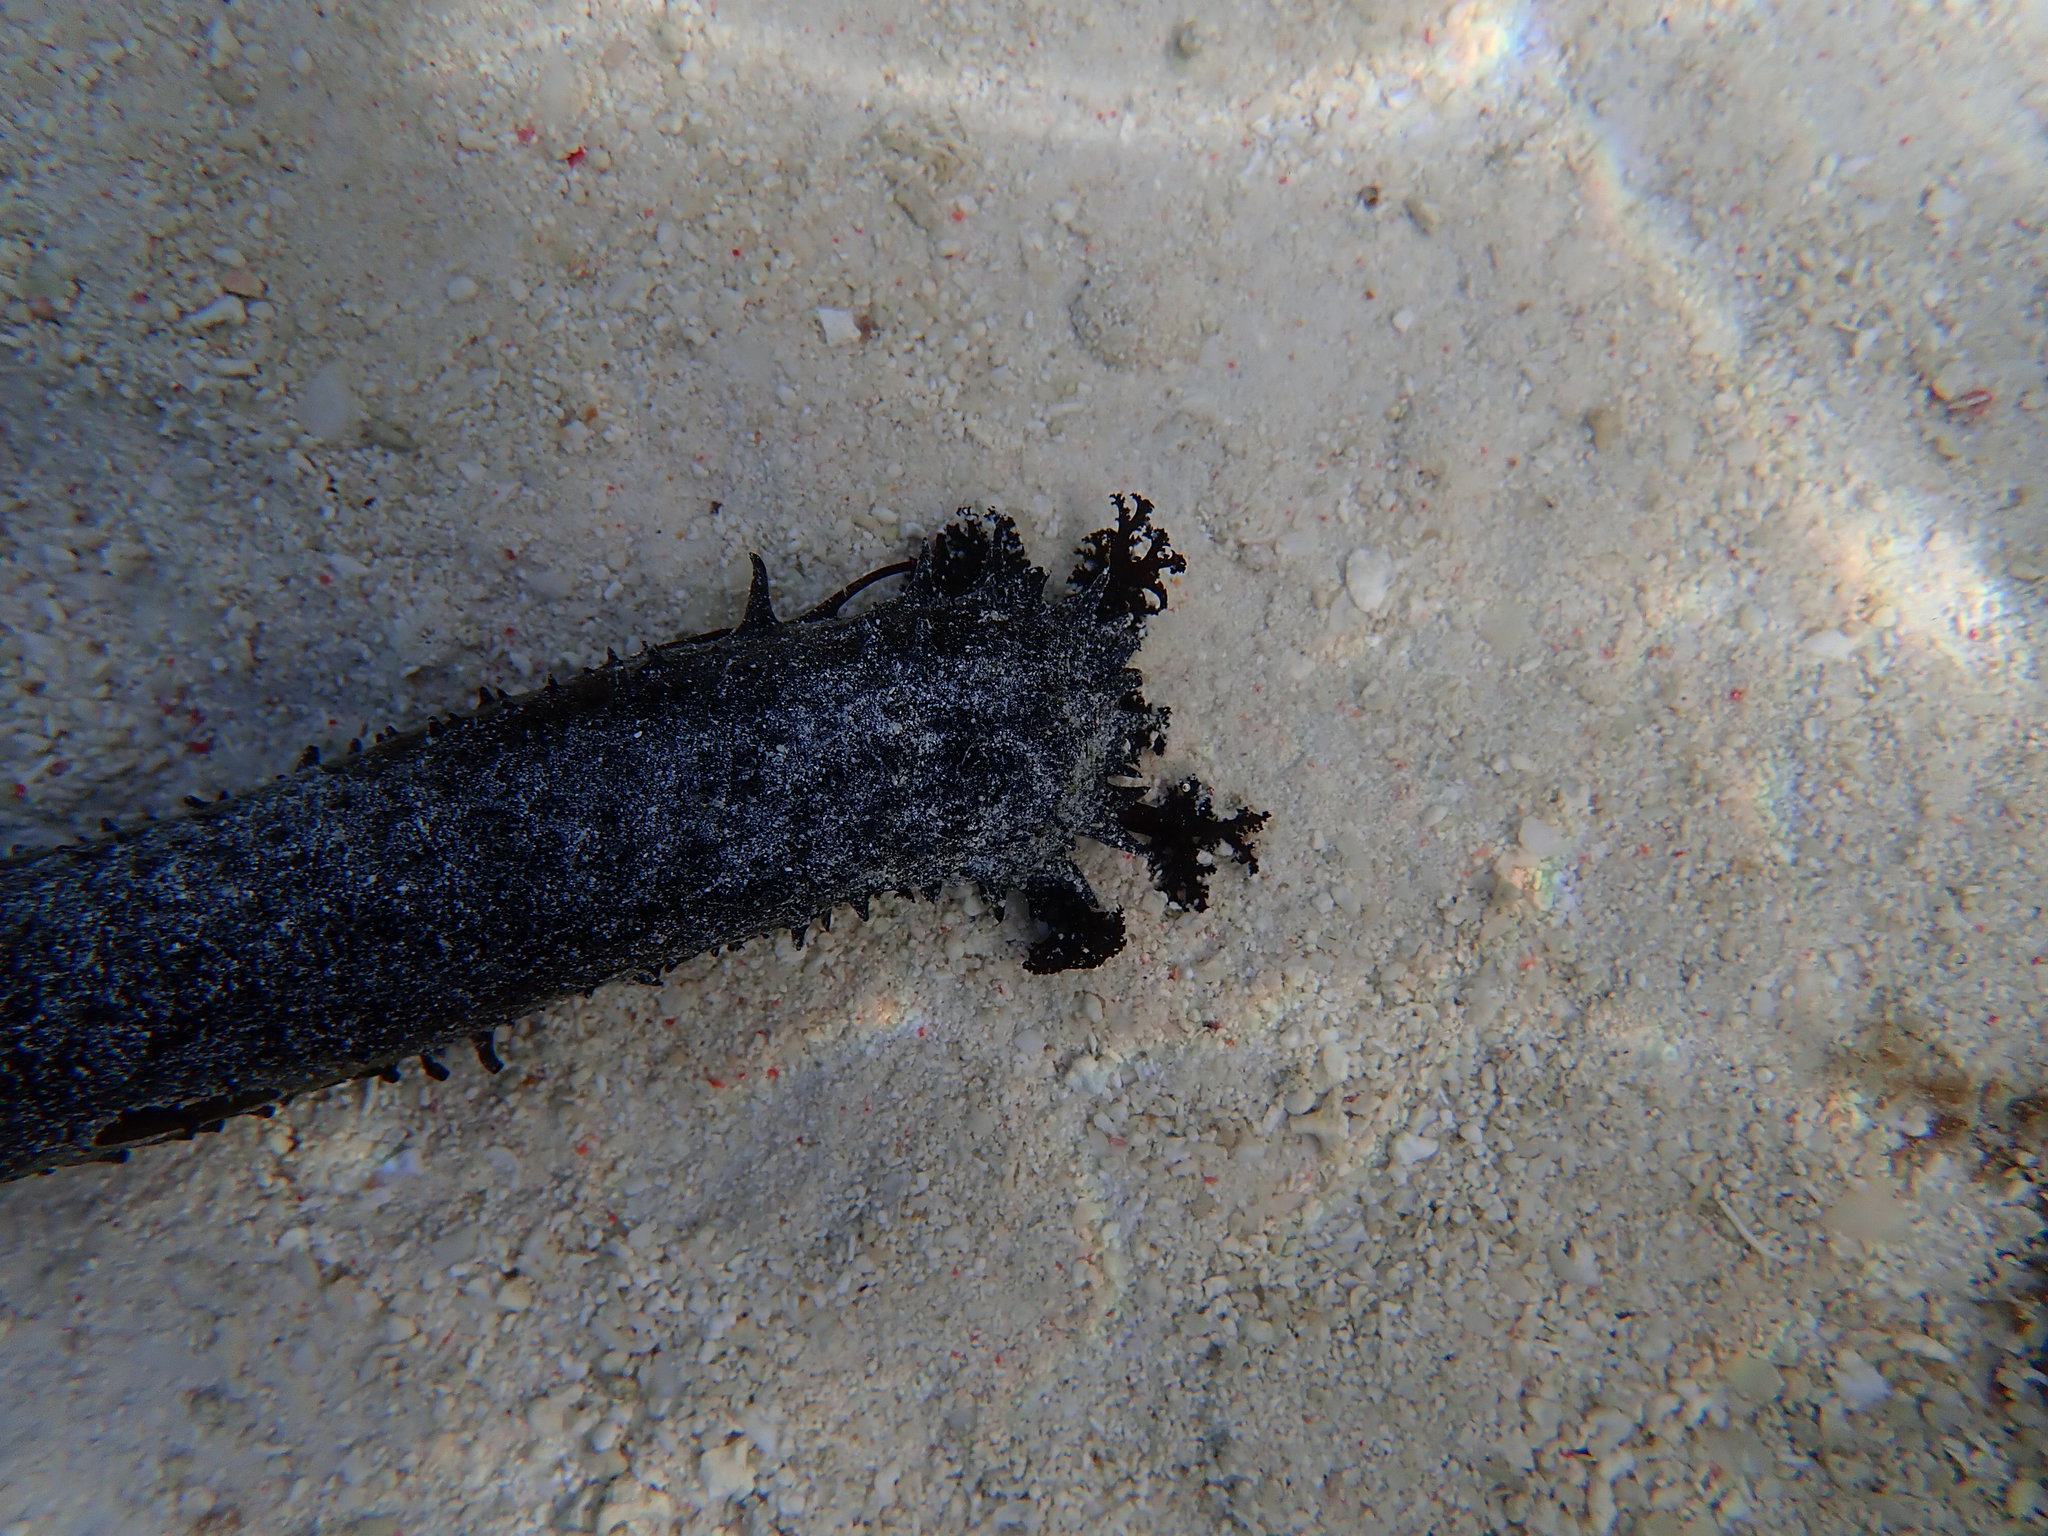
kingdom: Animalia
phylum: Echinodermata
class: Holothuroidea
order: Holothuriida
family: Holothuriidae
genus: Holothuria
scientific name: Holothuria leucospilota
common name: White thread fish
